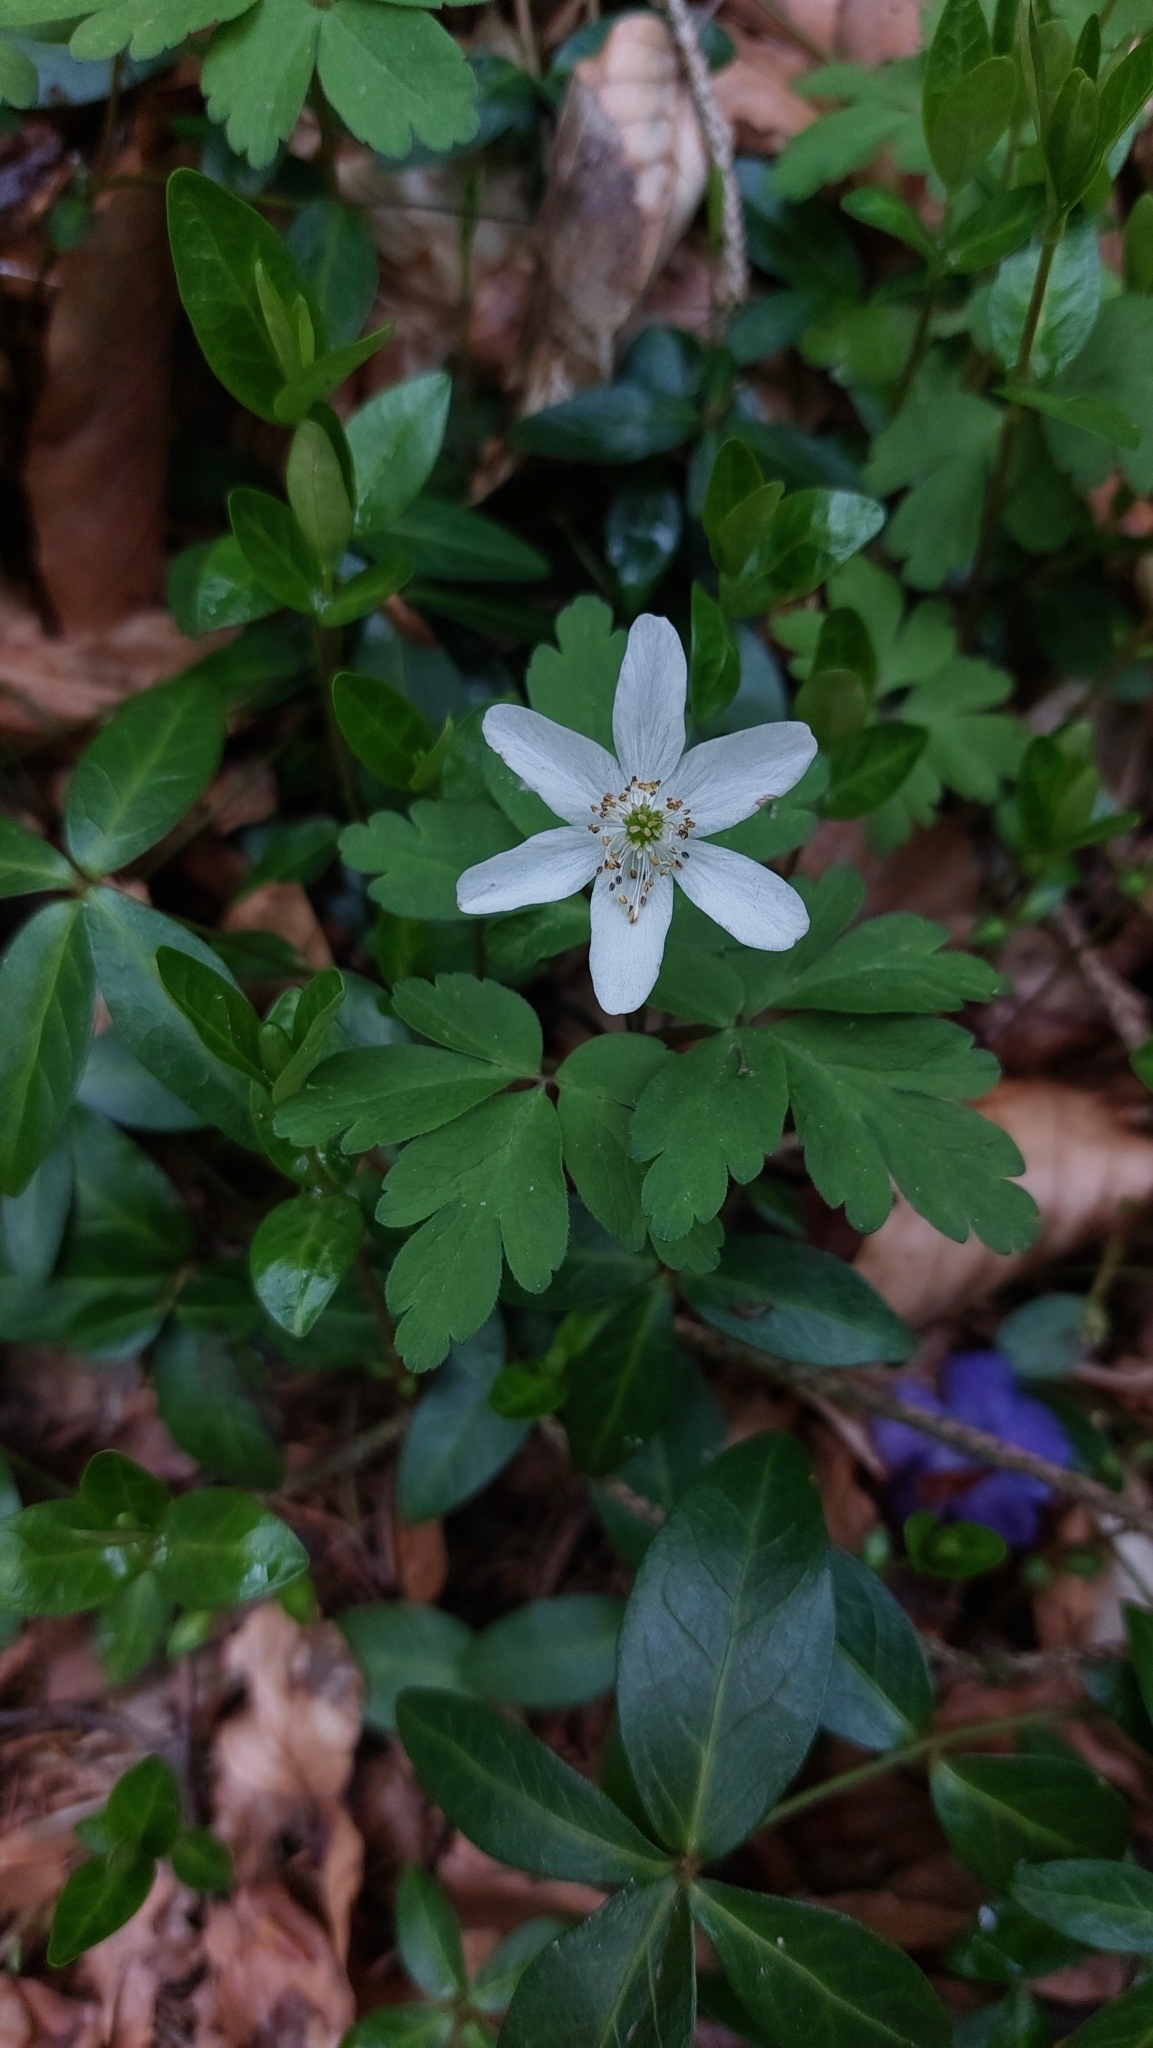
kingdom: Plantae
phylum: Tracheophyta
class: Magnoliopsida
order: Ranunculales
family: Ranunculaceae
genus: Anemone
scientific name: Anemone nemorosa
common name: Wood anemone
